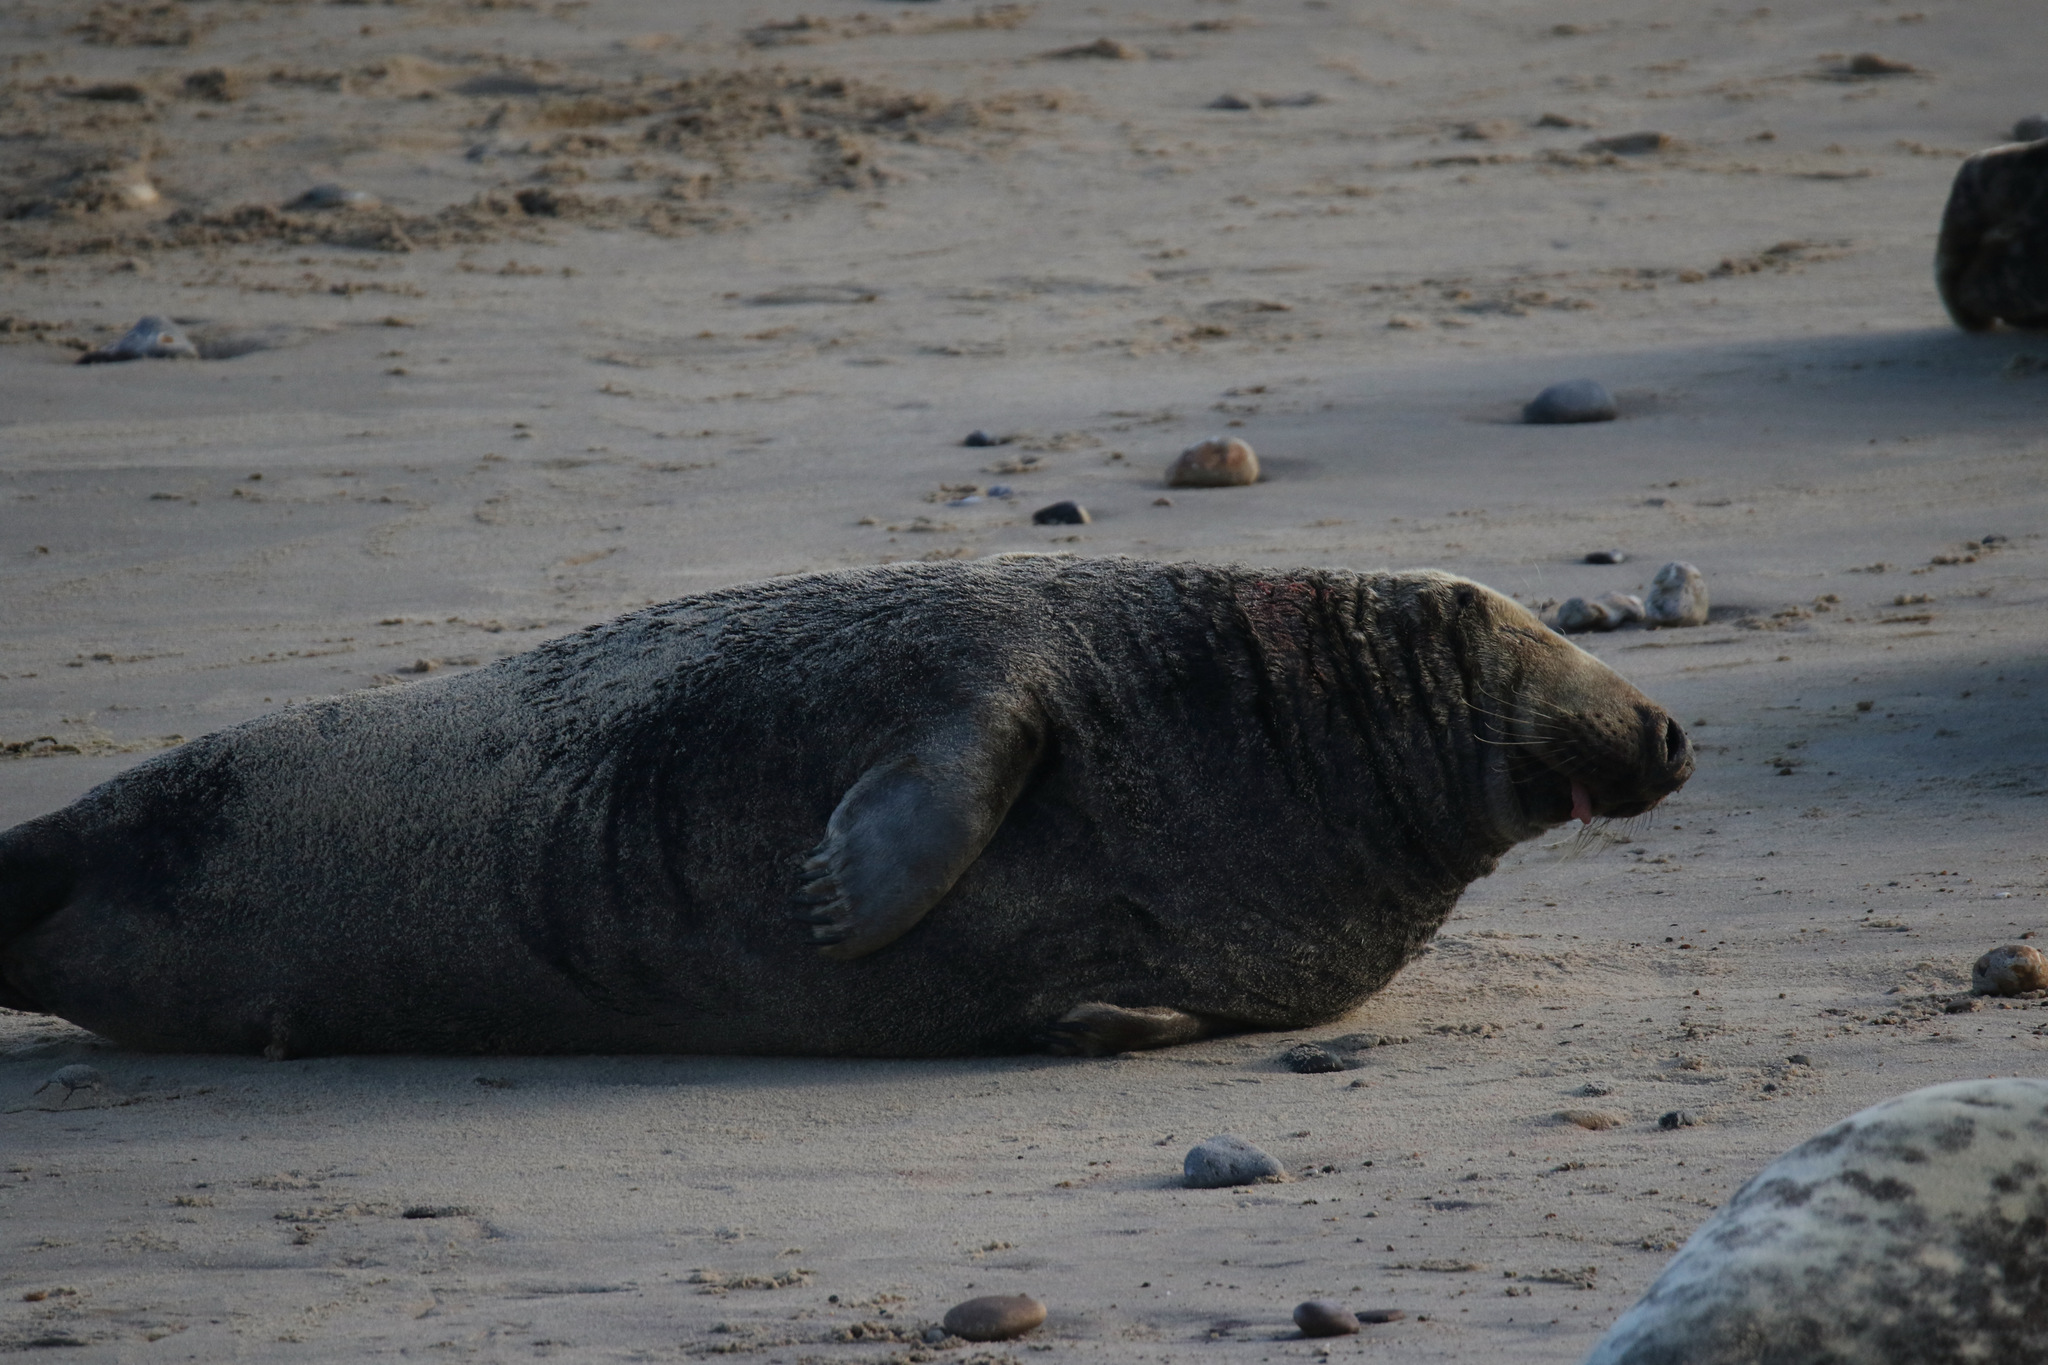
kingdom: Animalia
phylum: Chordata
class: Mammalia
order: Carnivora
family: Phocidae
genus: Halichoerus
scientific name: Halichoerus grypus
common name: Grey seal
